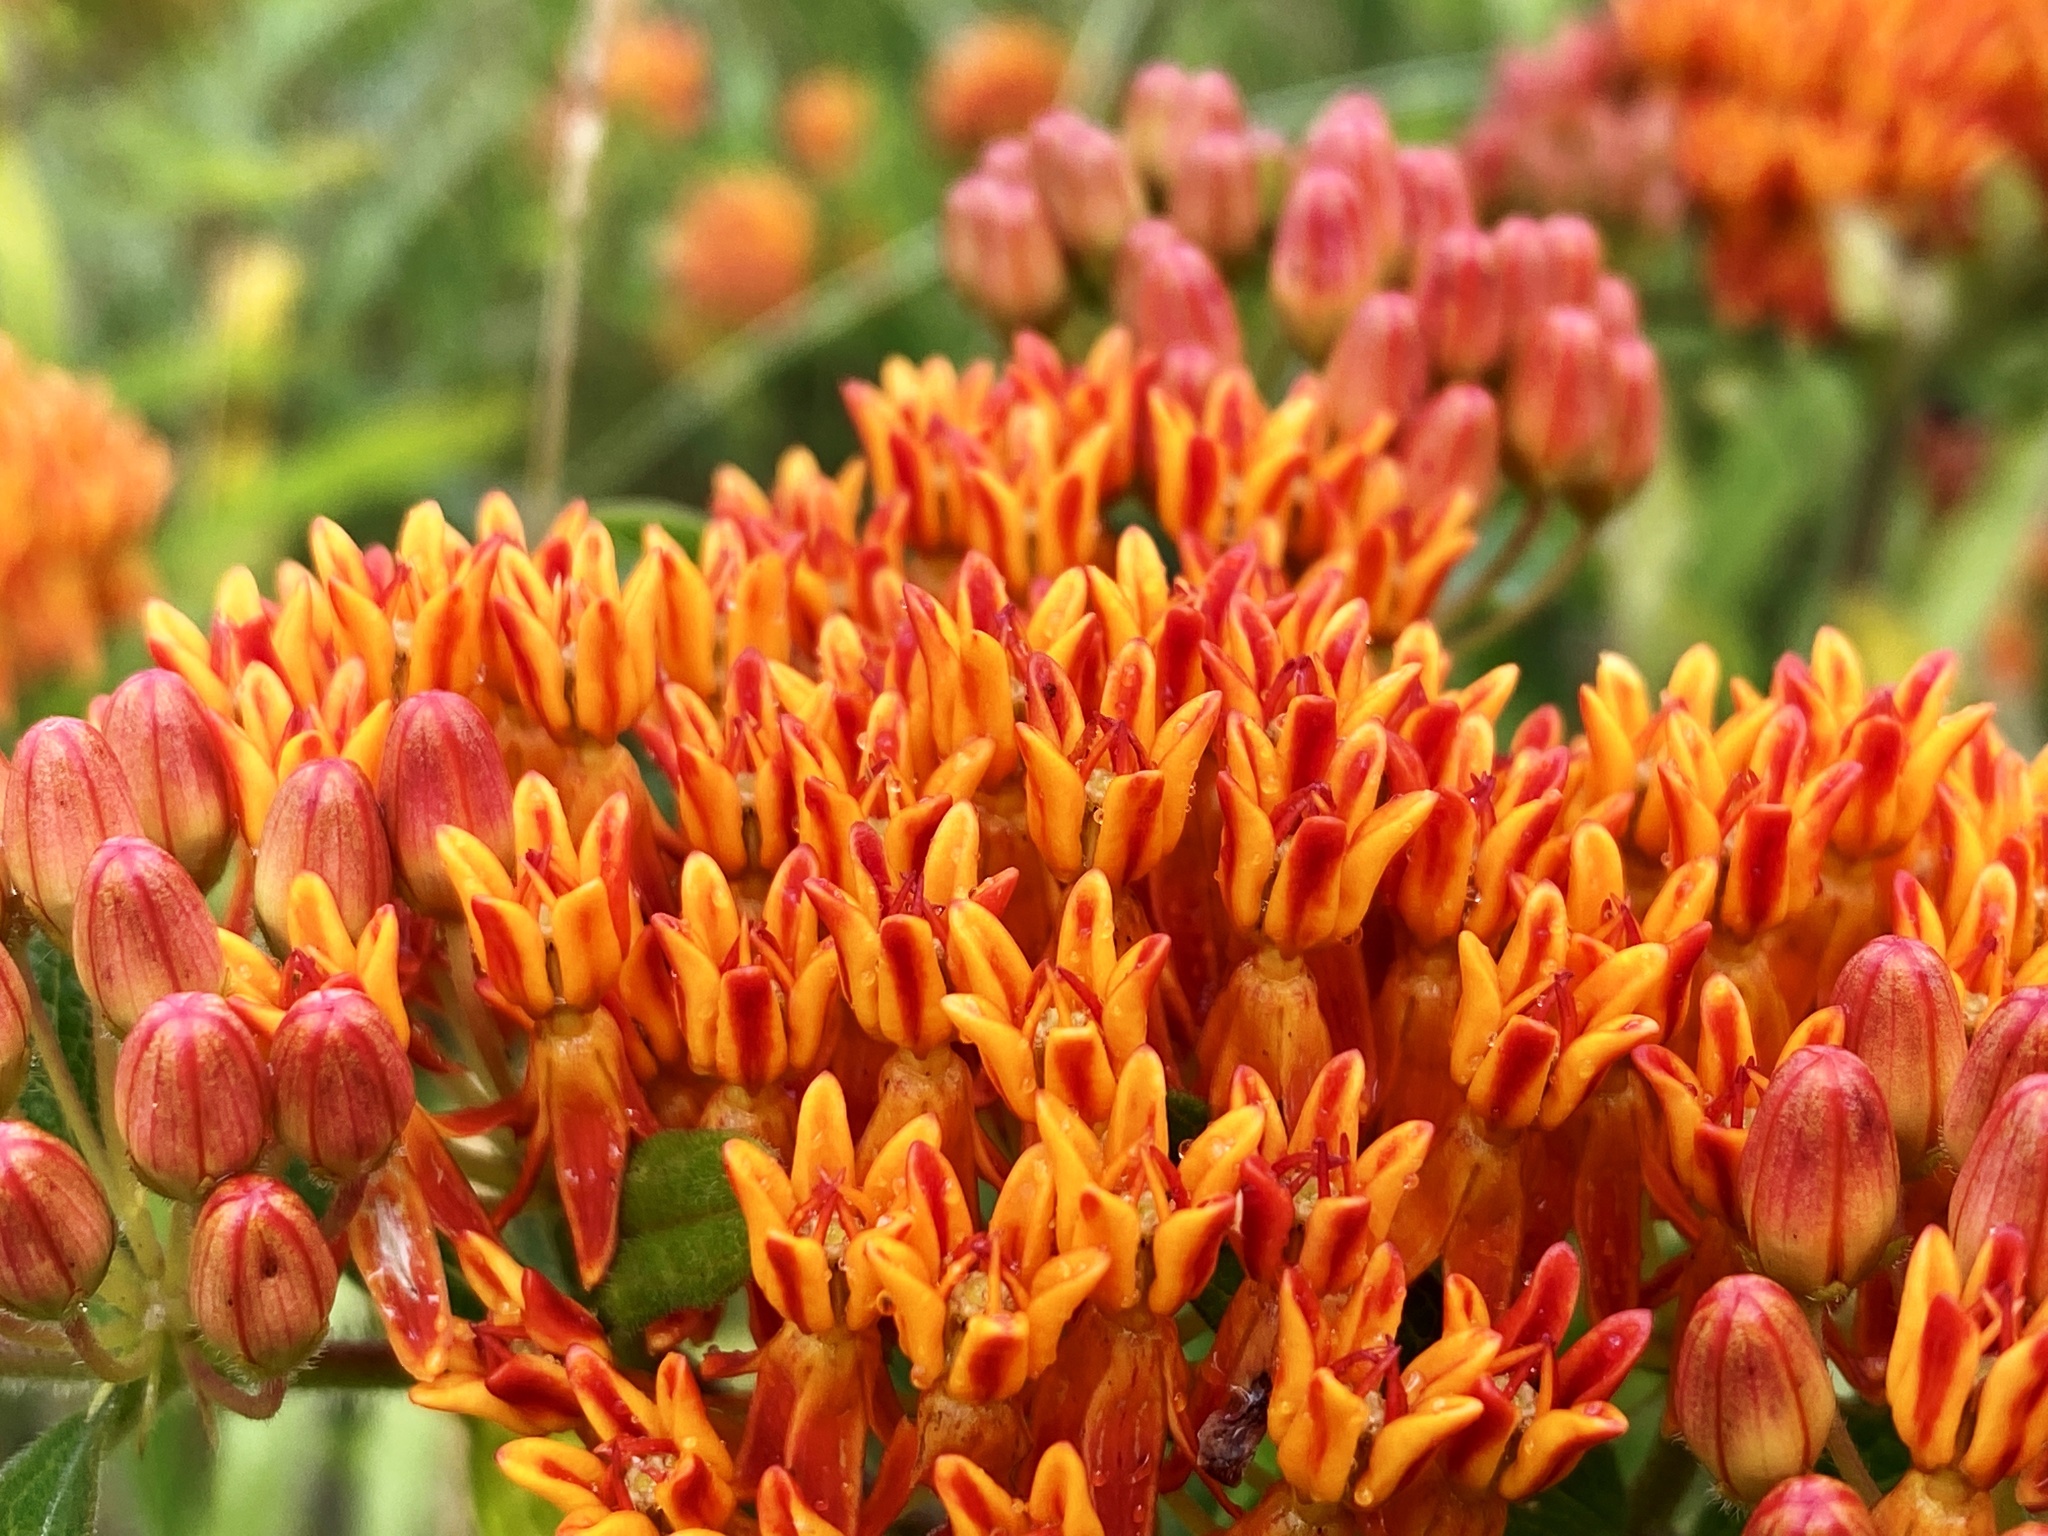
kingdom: Plantae
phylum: Tracheophyta
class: Magnoliopsida
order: Gentianales
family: Apocynaceae
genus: Asclepias
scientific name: Asclepias tuberosa
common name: Butterfly milkweed
